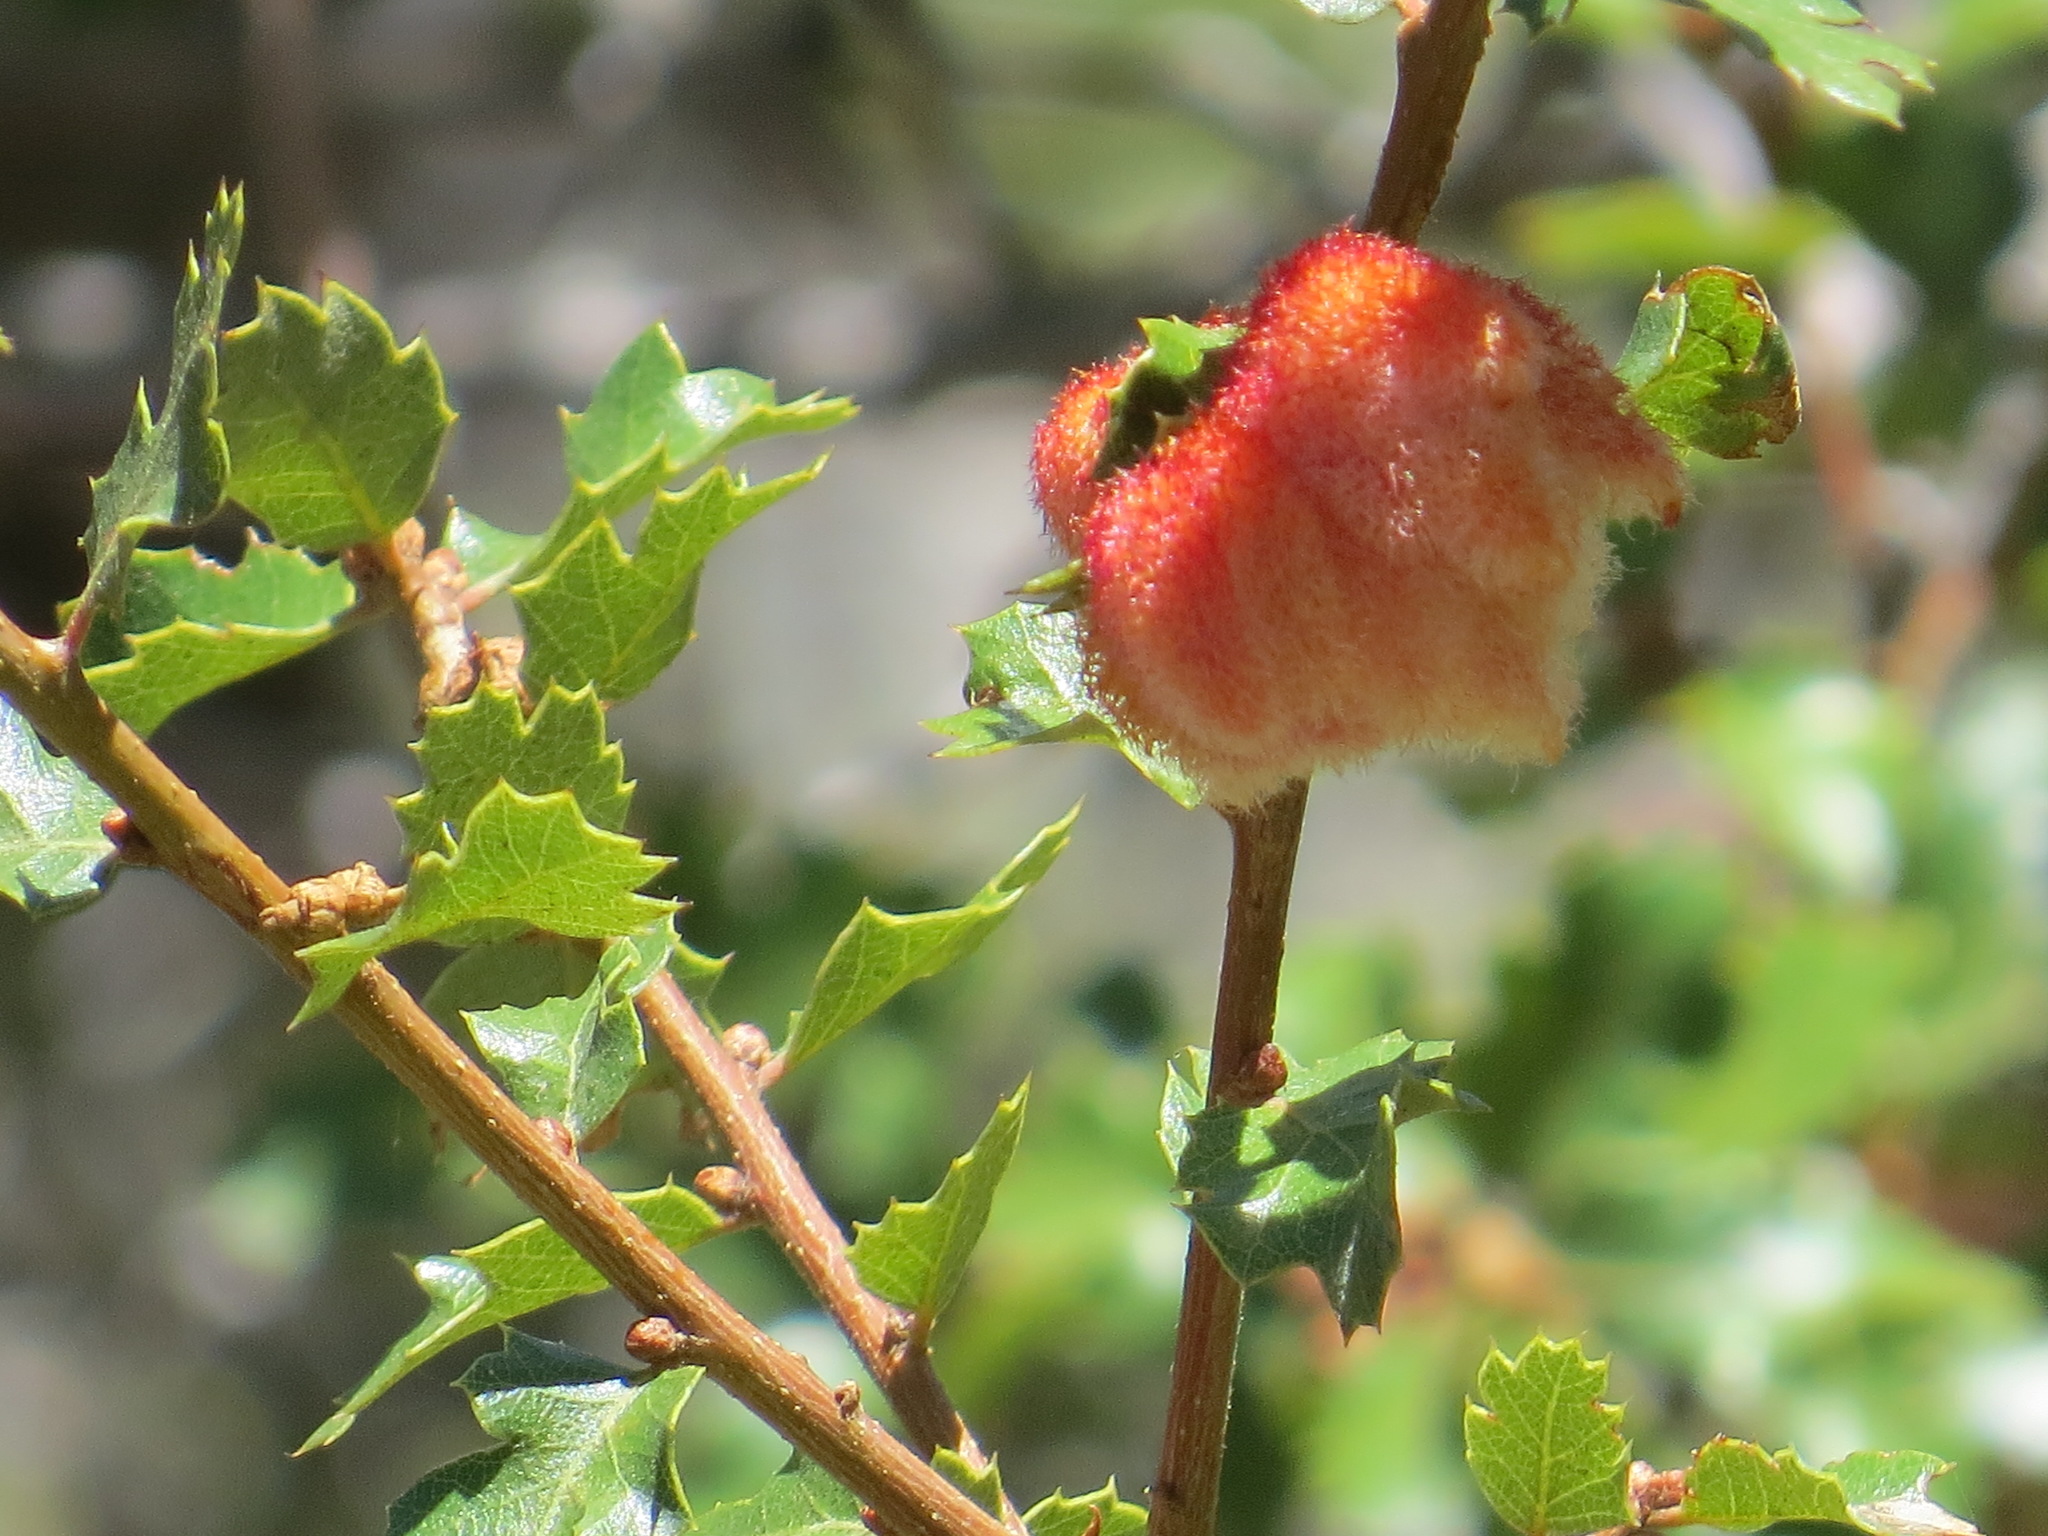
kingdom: Animalia
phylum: Arthropoda
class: Insecta
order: Hymenoptera
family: Cynipidae
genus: Andricus
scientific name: Andricus
